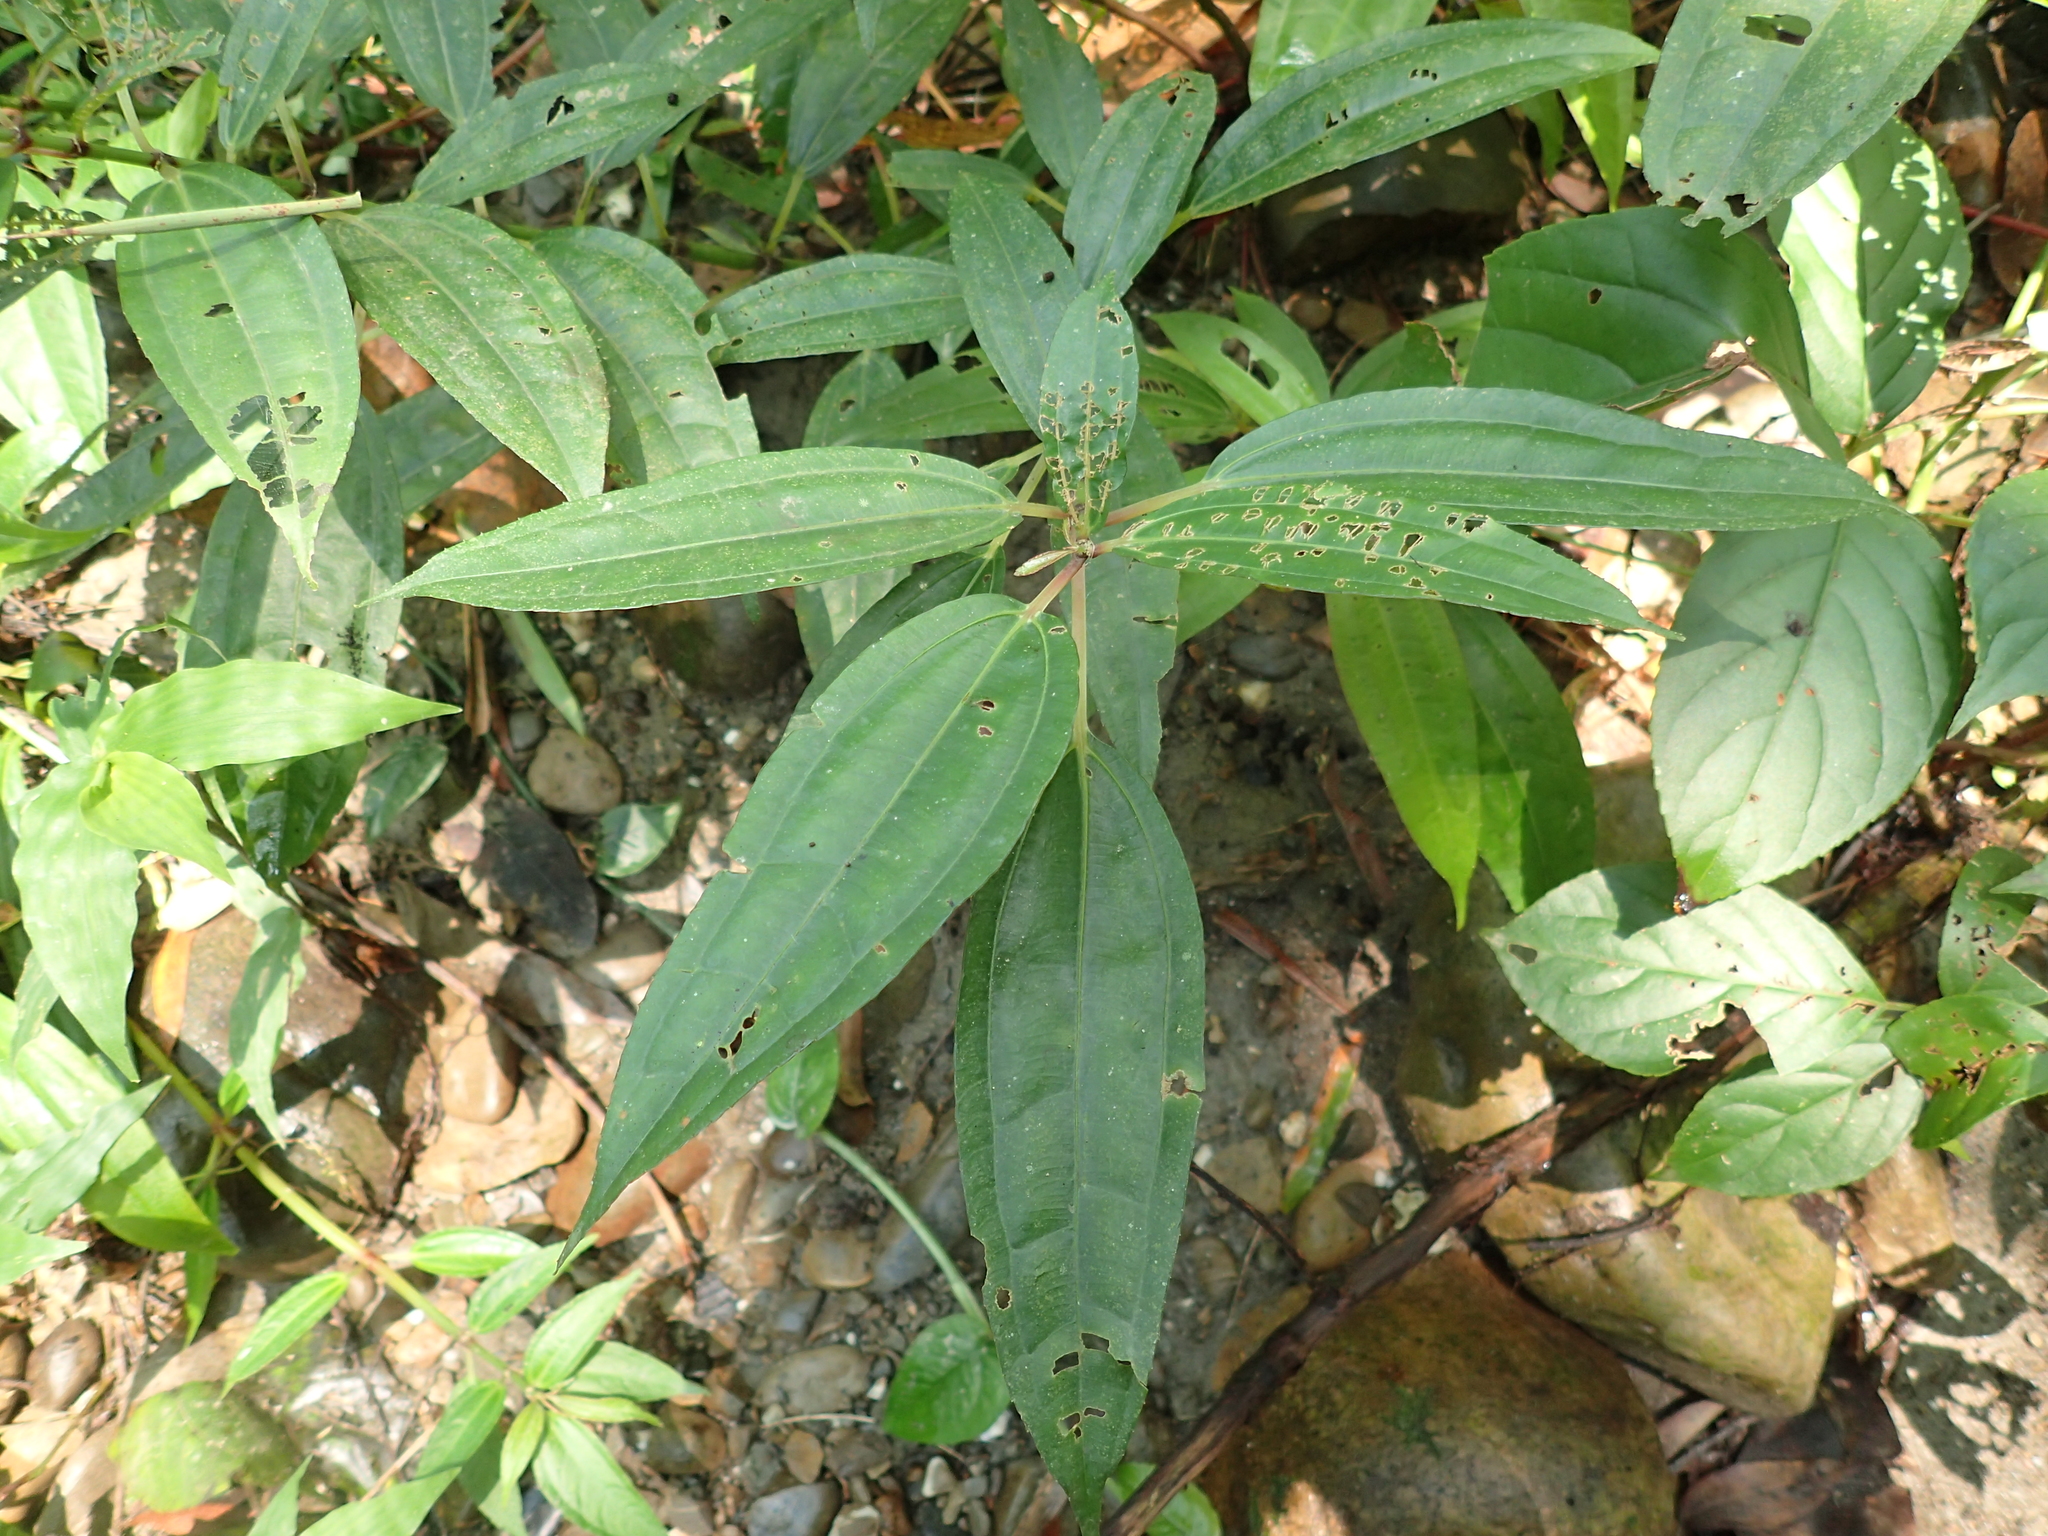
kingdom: Plantae
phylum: Tracheophyta
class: Magnoliopsida
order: Rosales
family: Urticaceae
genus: Pilea
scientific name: Pilea rotundinucula
